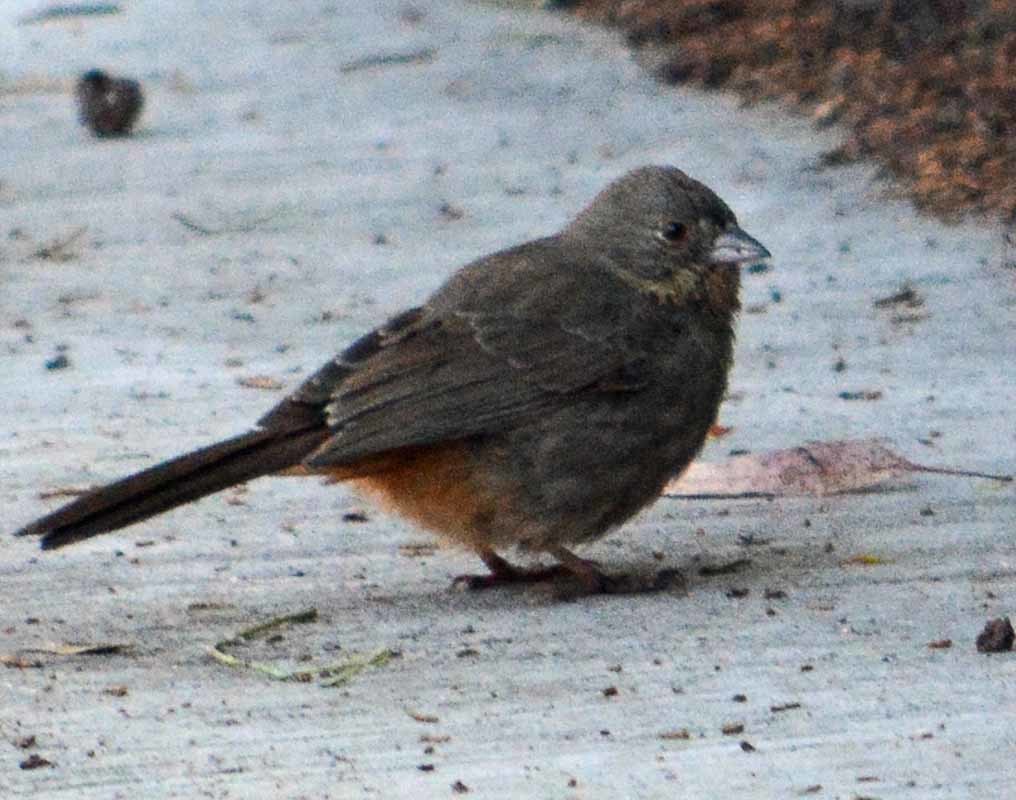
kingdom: Animalia
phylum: Chordata
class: Aves
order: Passeriformes
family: Passerellidae
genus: Melozone
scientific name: Melozone fusca
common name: Canyon towhee
